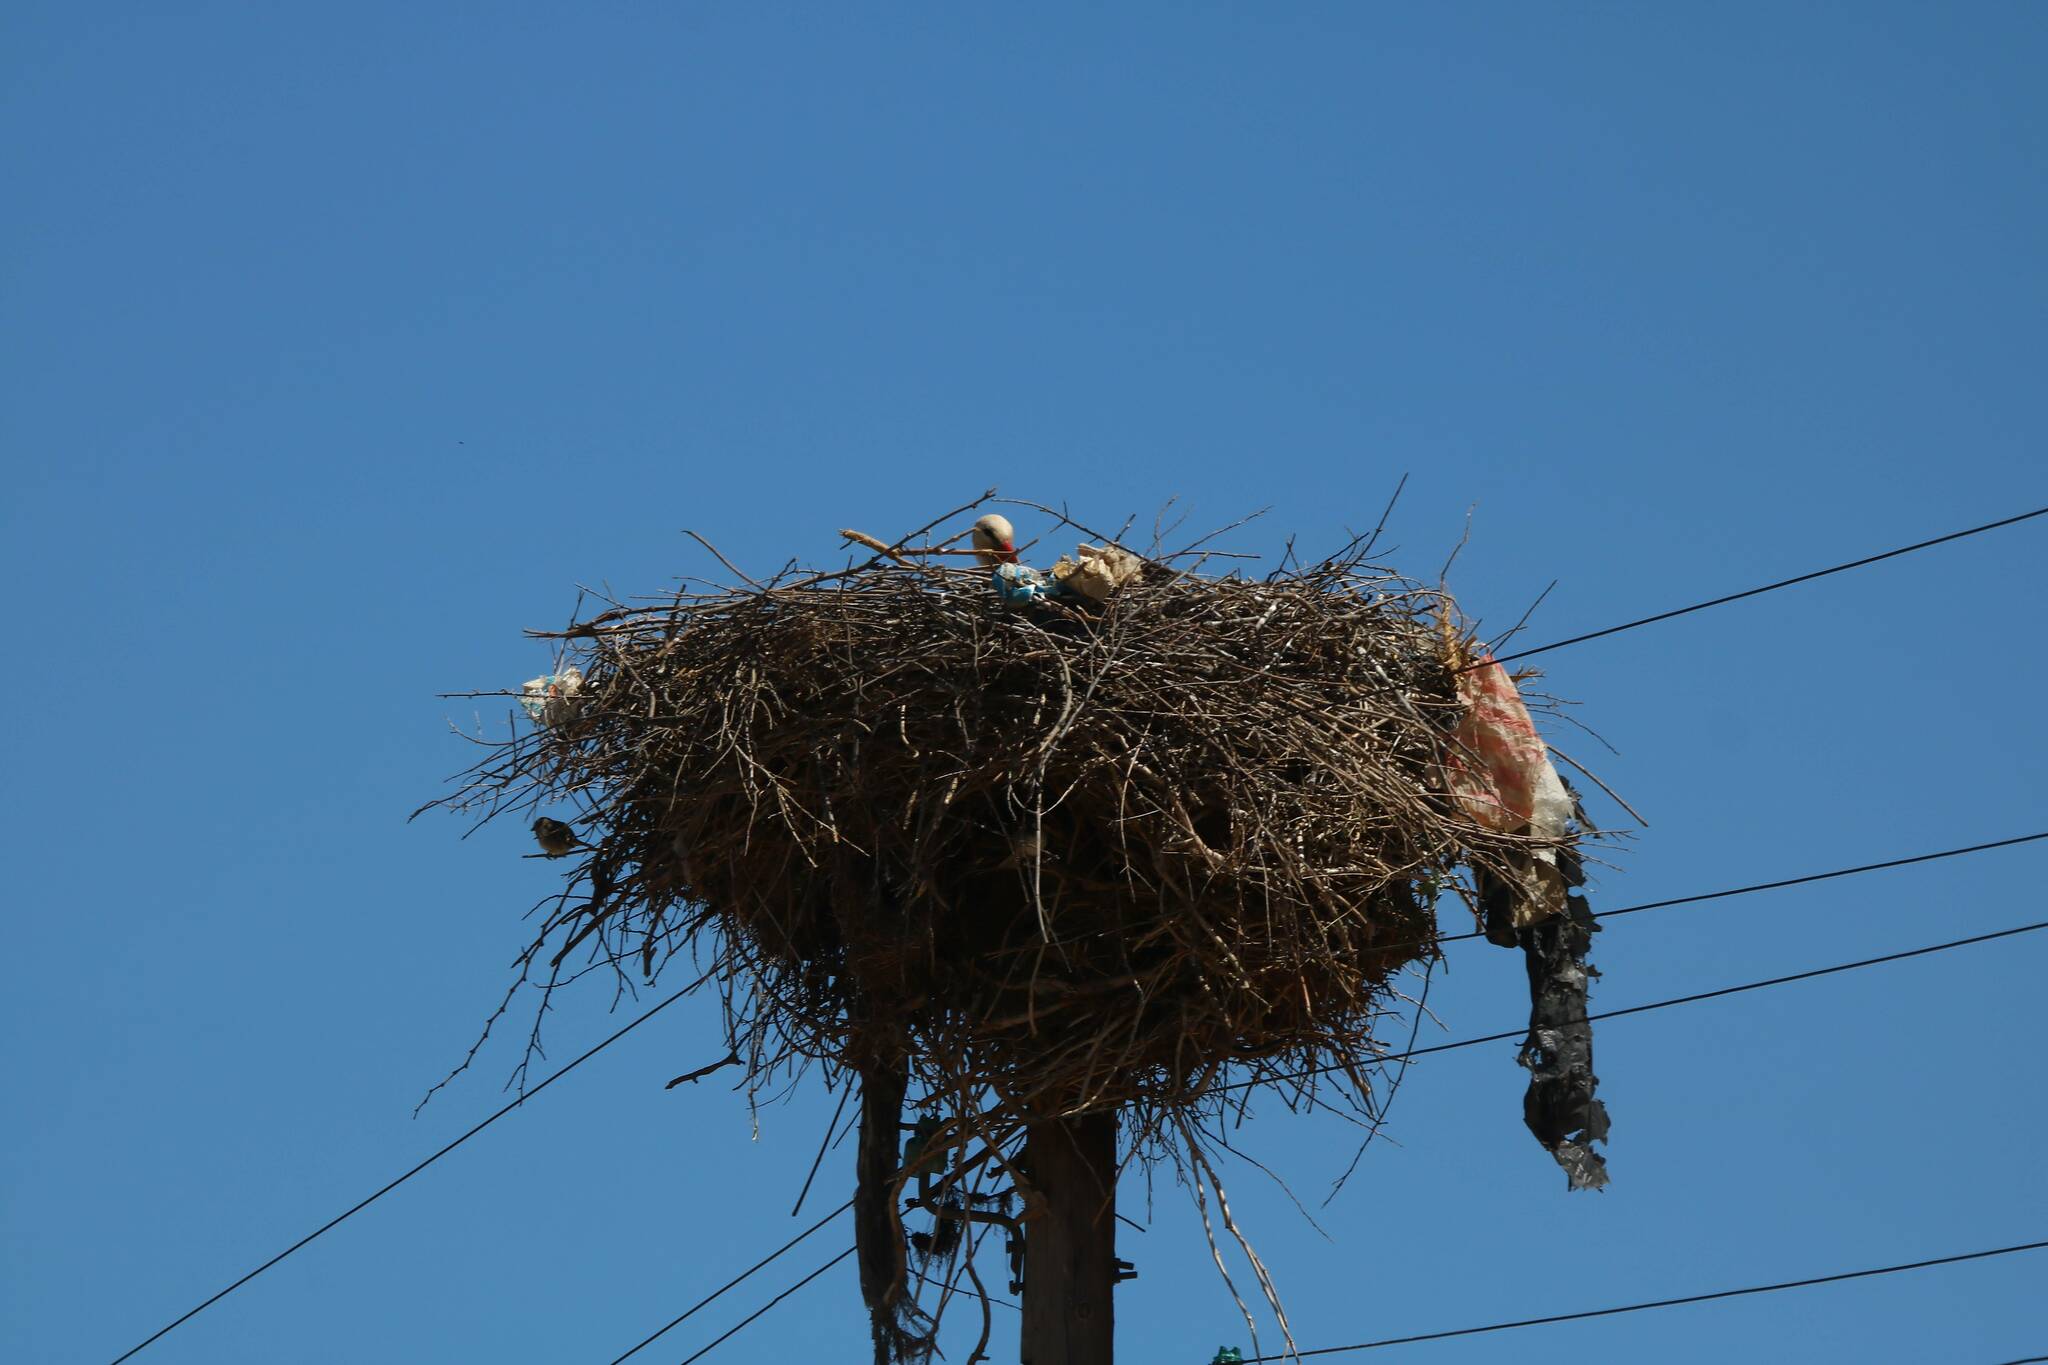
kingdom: Animalia
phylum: Chordata
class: Aves
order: Ciconiiformes
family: Ciconiidae
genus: Ciconia
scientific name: Ciconia ciconia
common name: White stork
